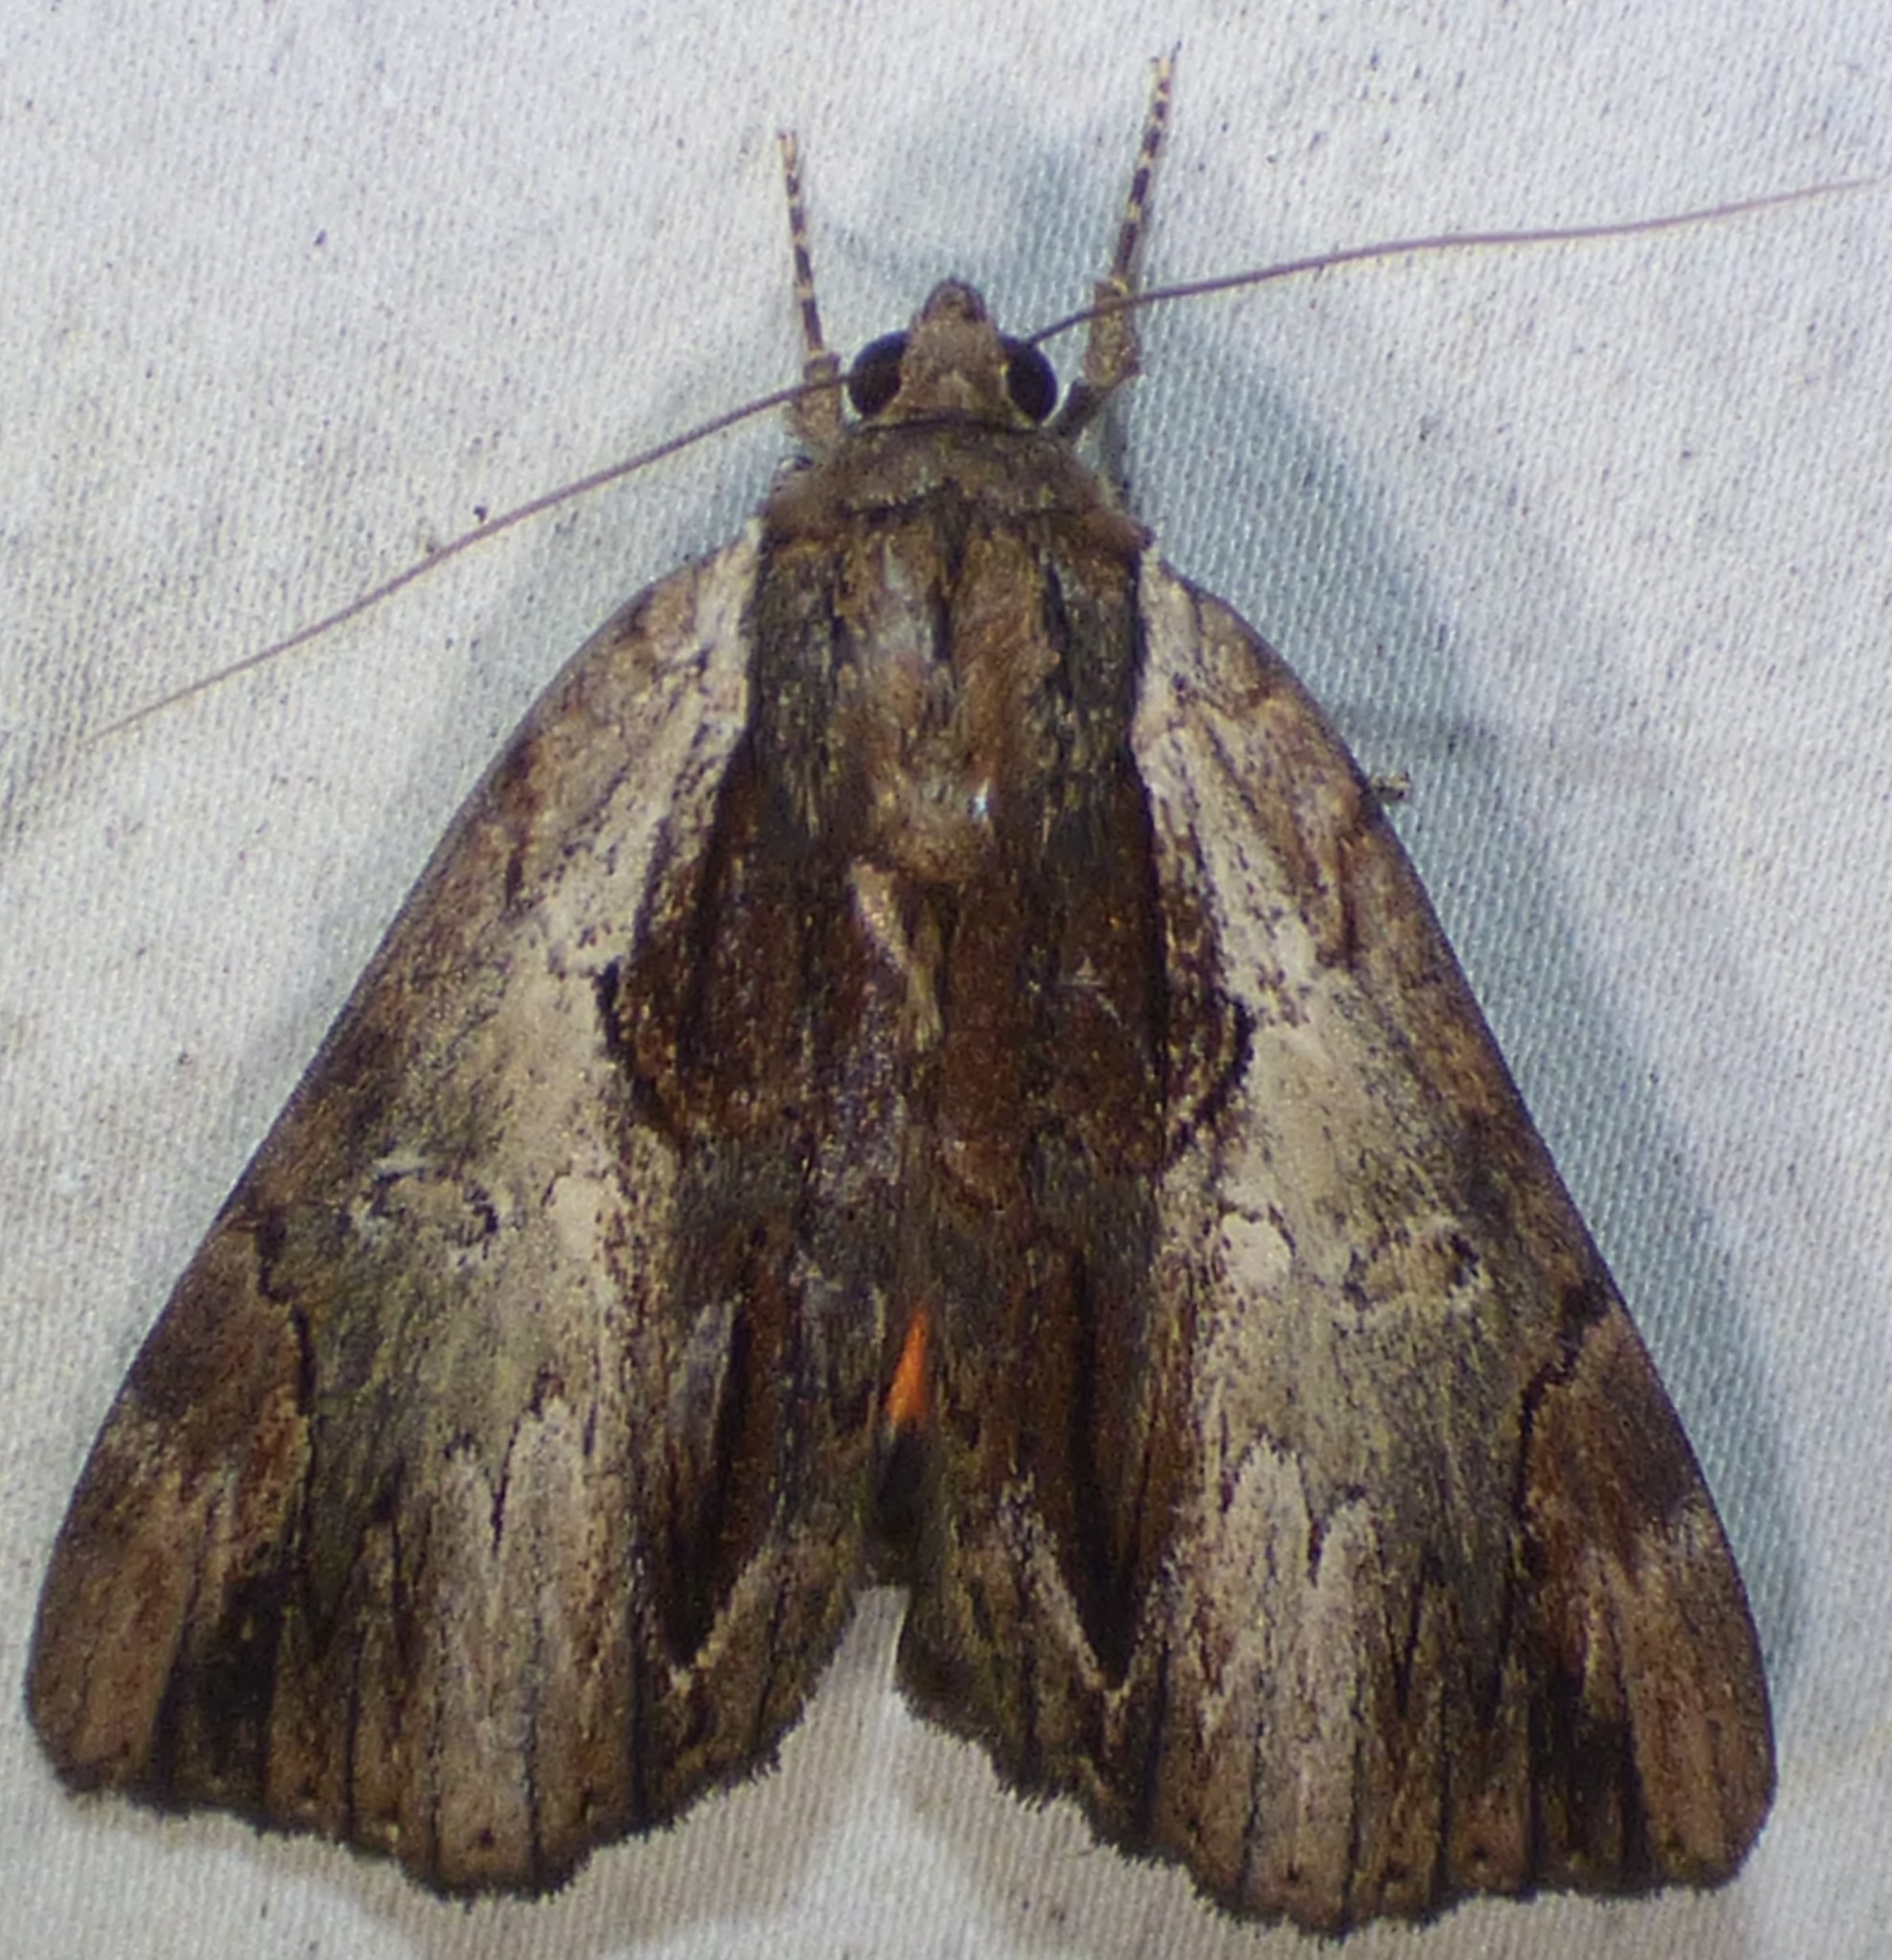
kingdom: Animalia
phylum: Arthropoda
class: Insecta
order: Lepidoptera
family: Erebidae
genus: Catocala
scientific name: Catocala ultronia
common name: Ultronia underwing
